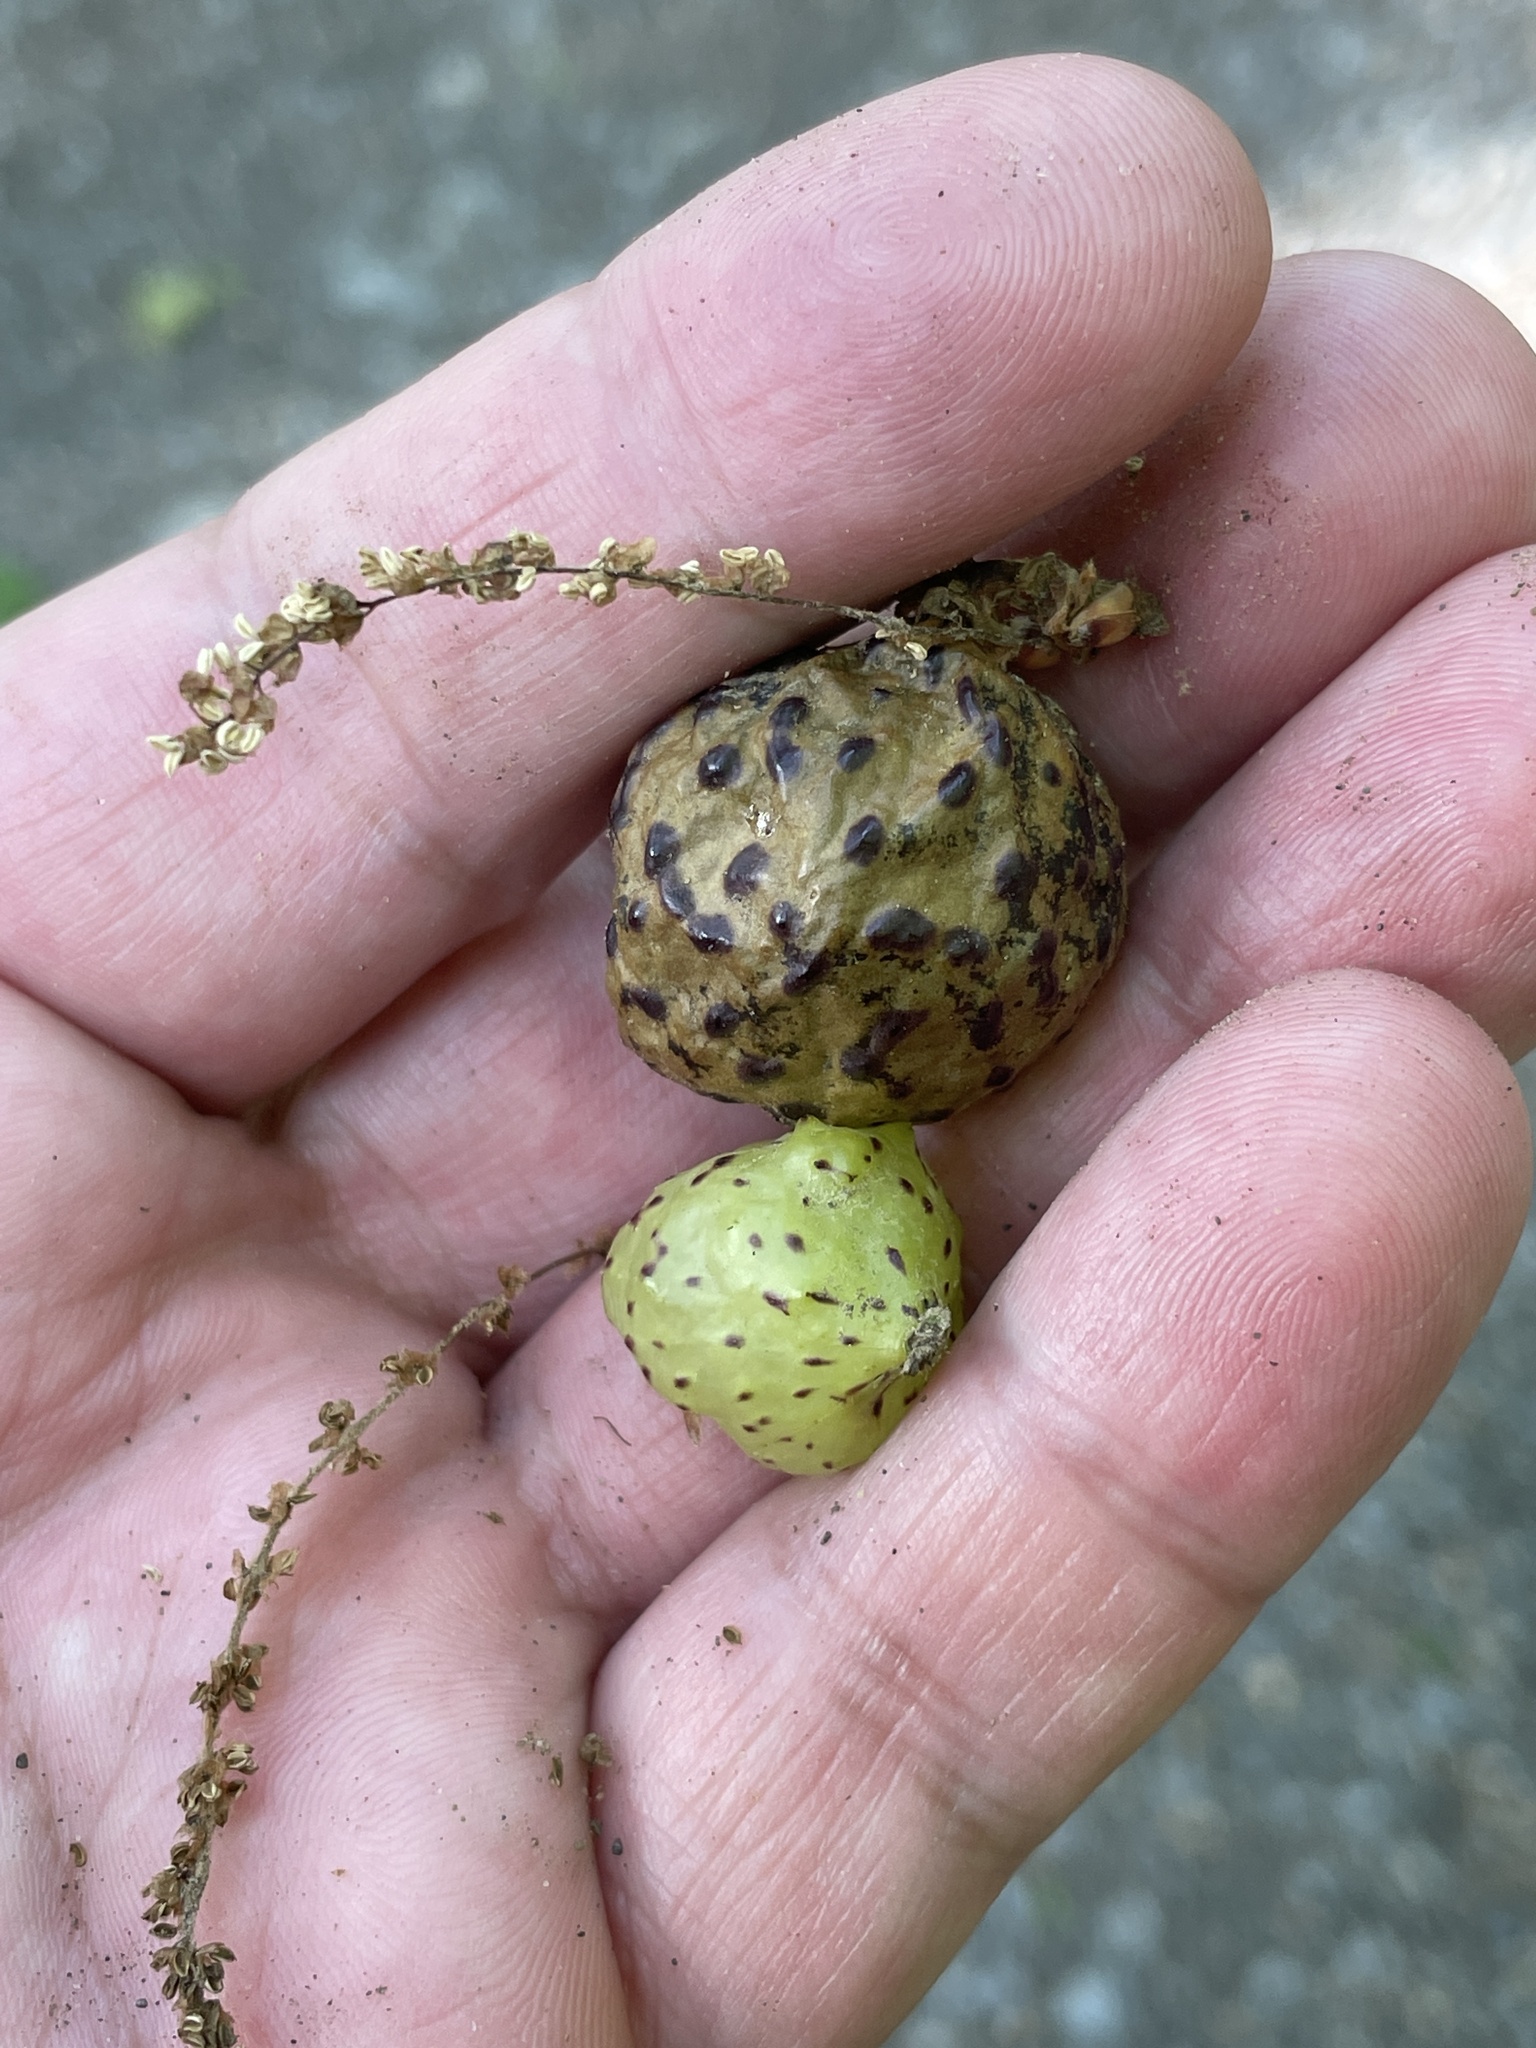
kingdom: Animalia
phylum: Arthropoda
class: Insecta
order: Hymenoptera
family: Cynipidae
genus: Amphibolips
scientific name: Amphibolips
